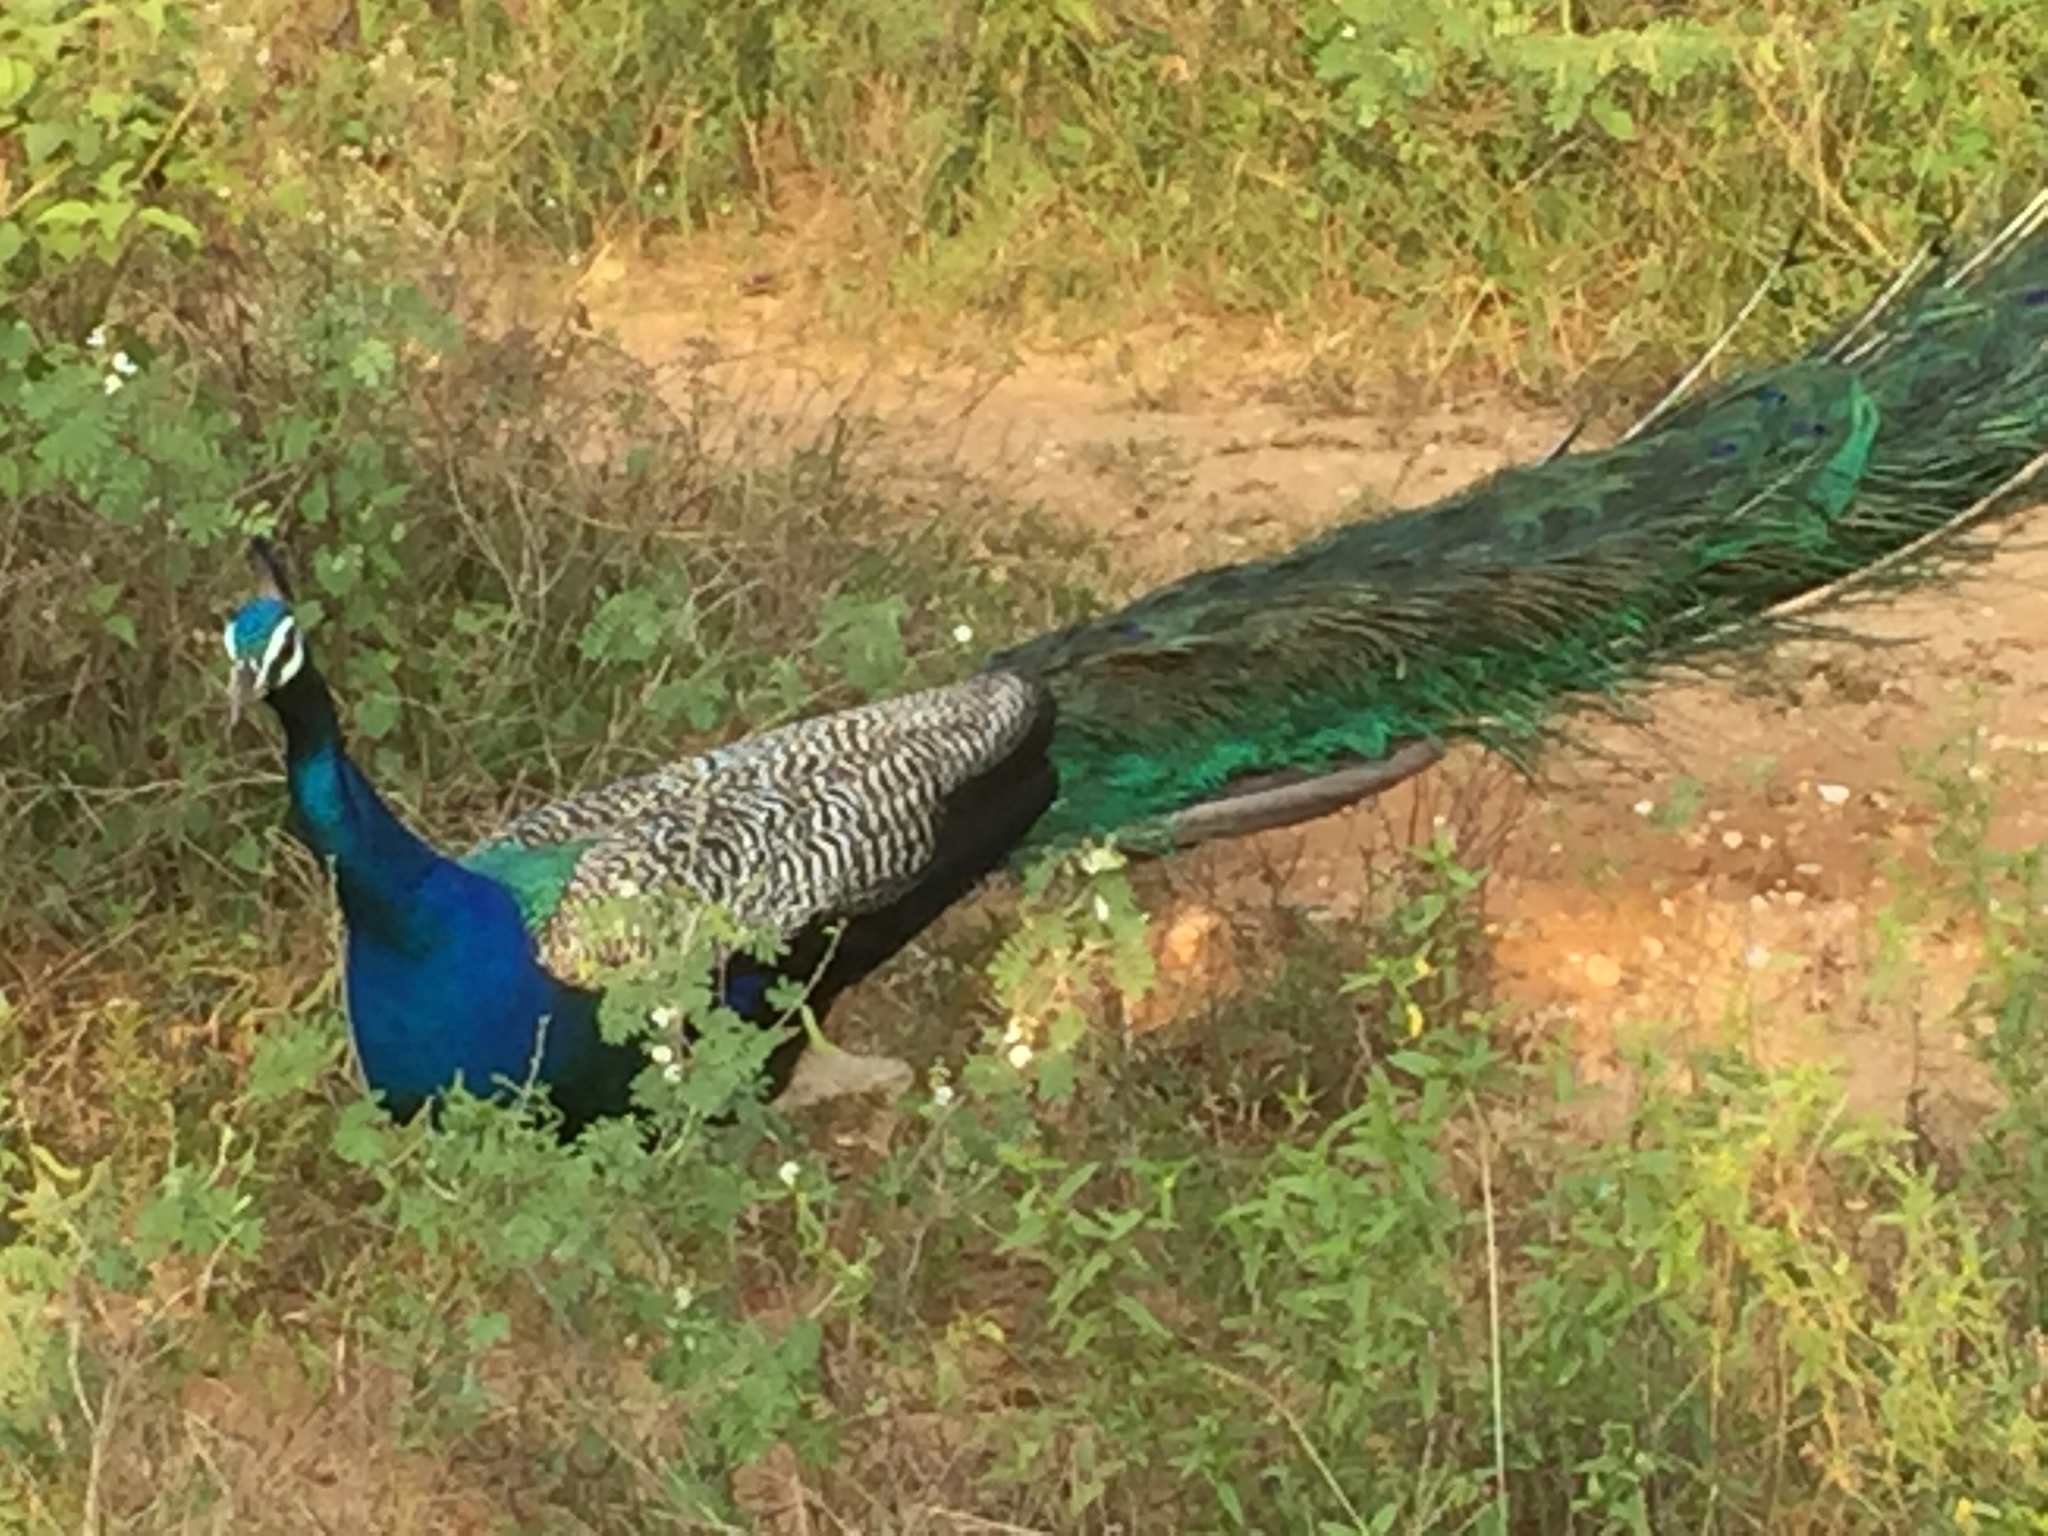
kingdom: Animalia
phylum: Chordata
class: Aves
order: Galliformes
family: Phasianidae
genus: Pavo
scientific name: Pavo cristatus
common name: Indian peafowl
